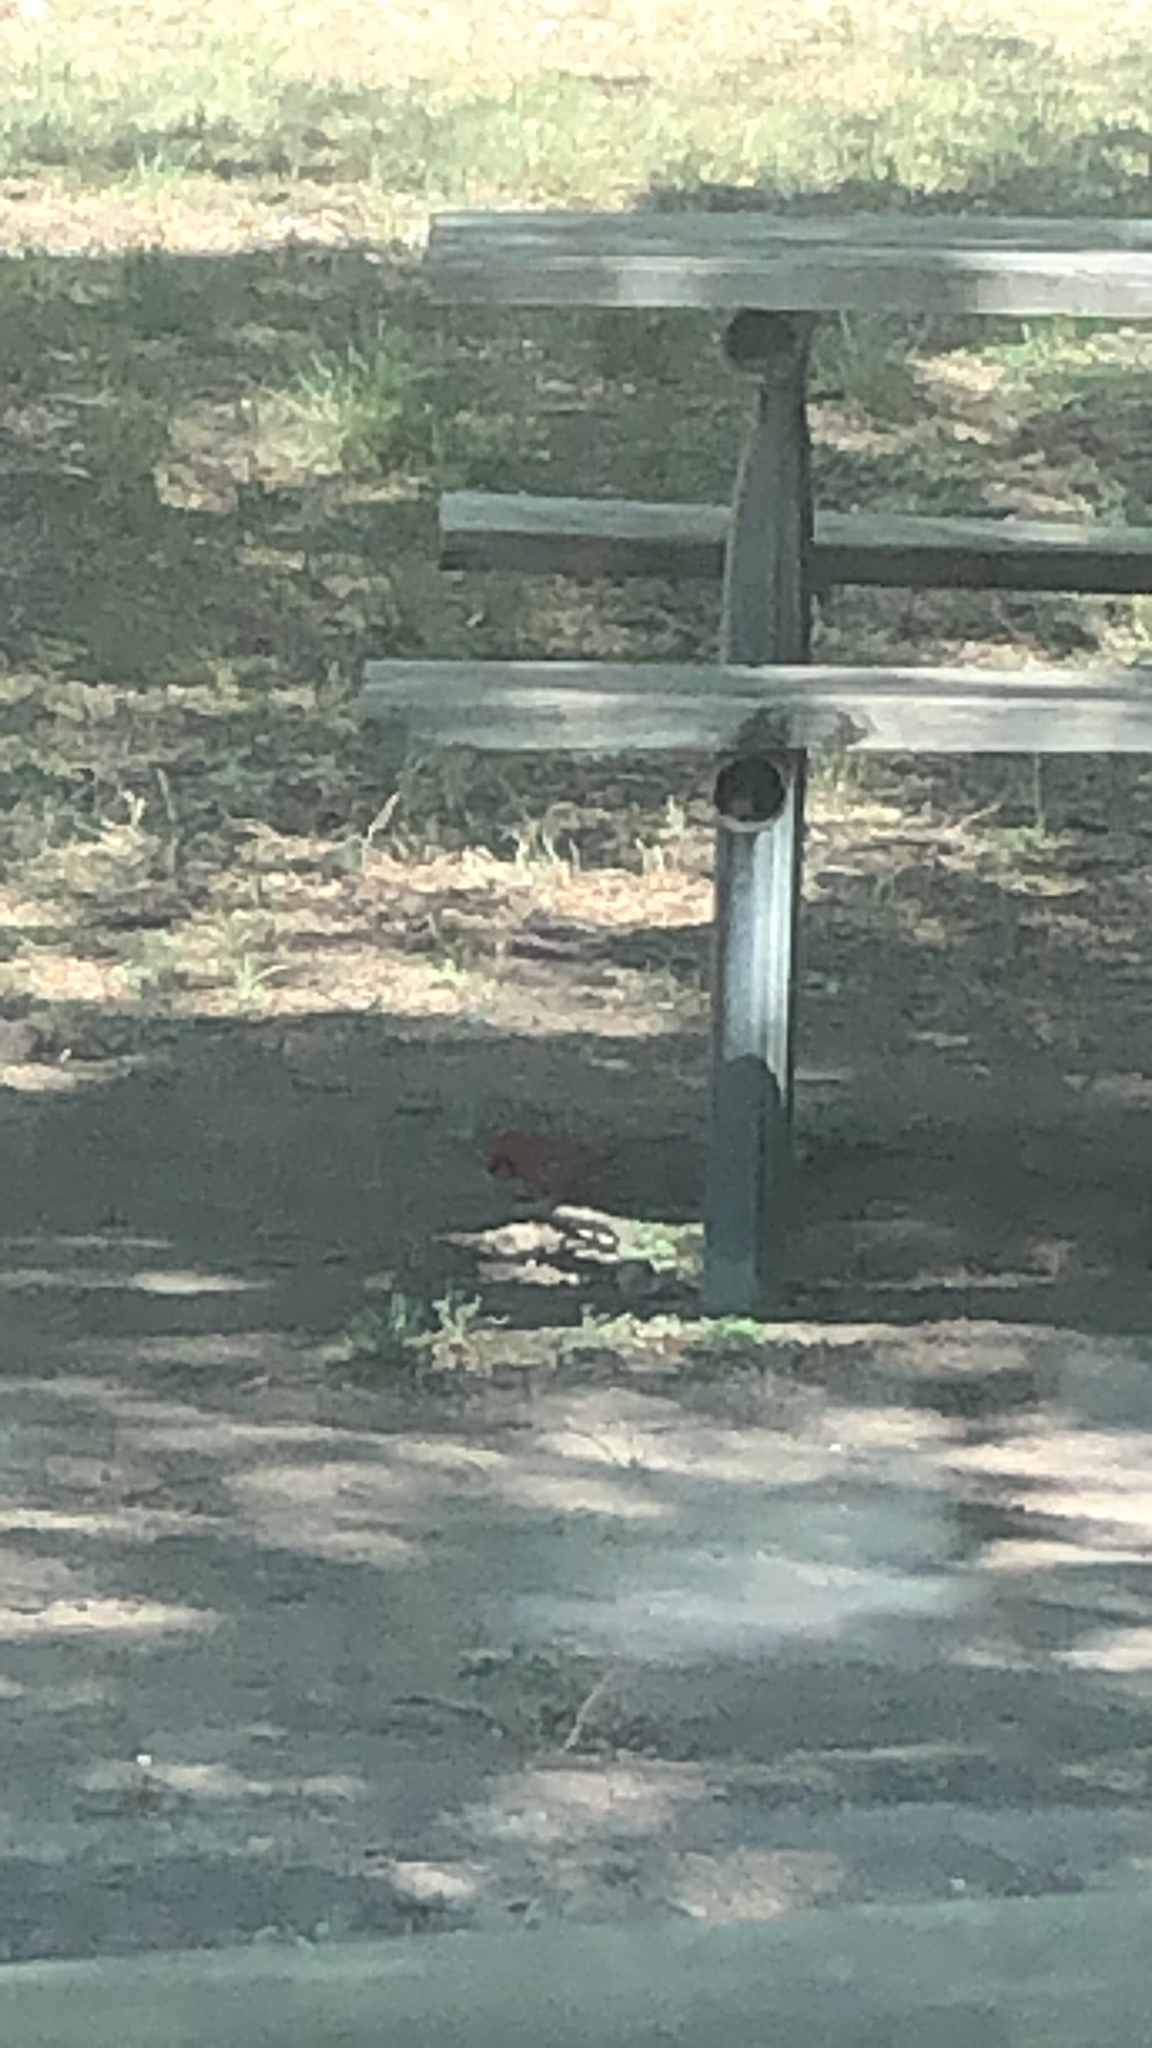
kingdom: Animalia
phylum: Chordata
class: Aves
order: Passeriformes
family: Cardinalidae
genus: Cardinalis
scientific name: Cardinalis cardinalis
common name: Northern cardinal
